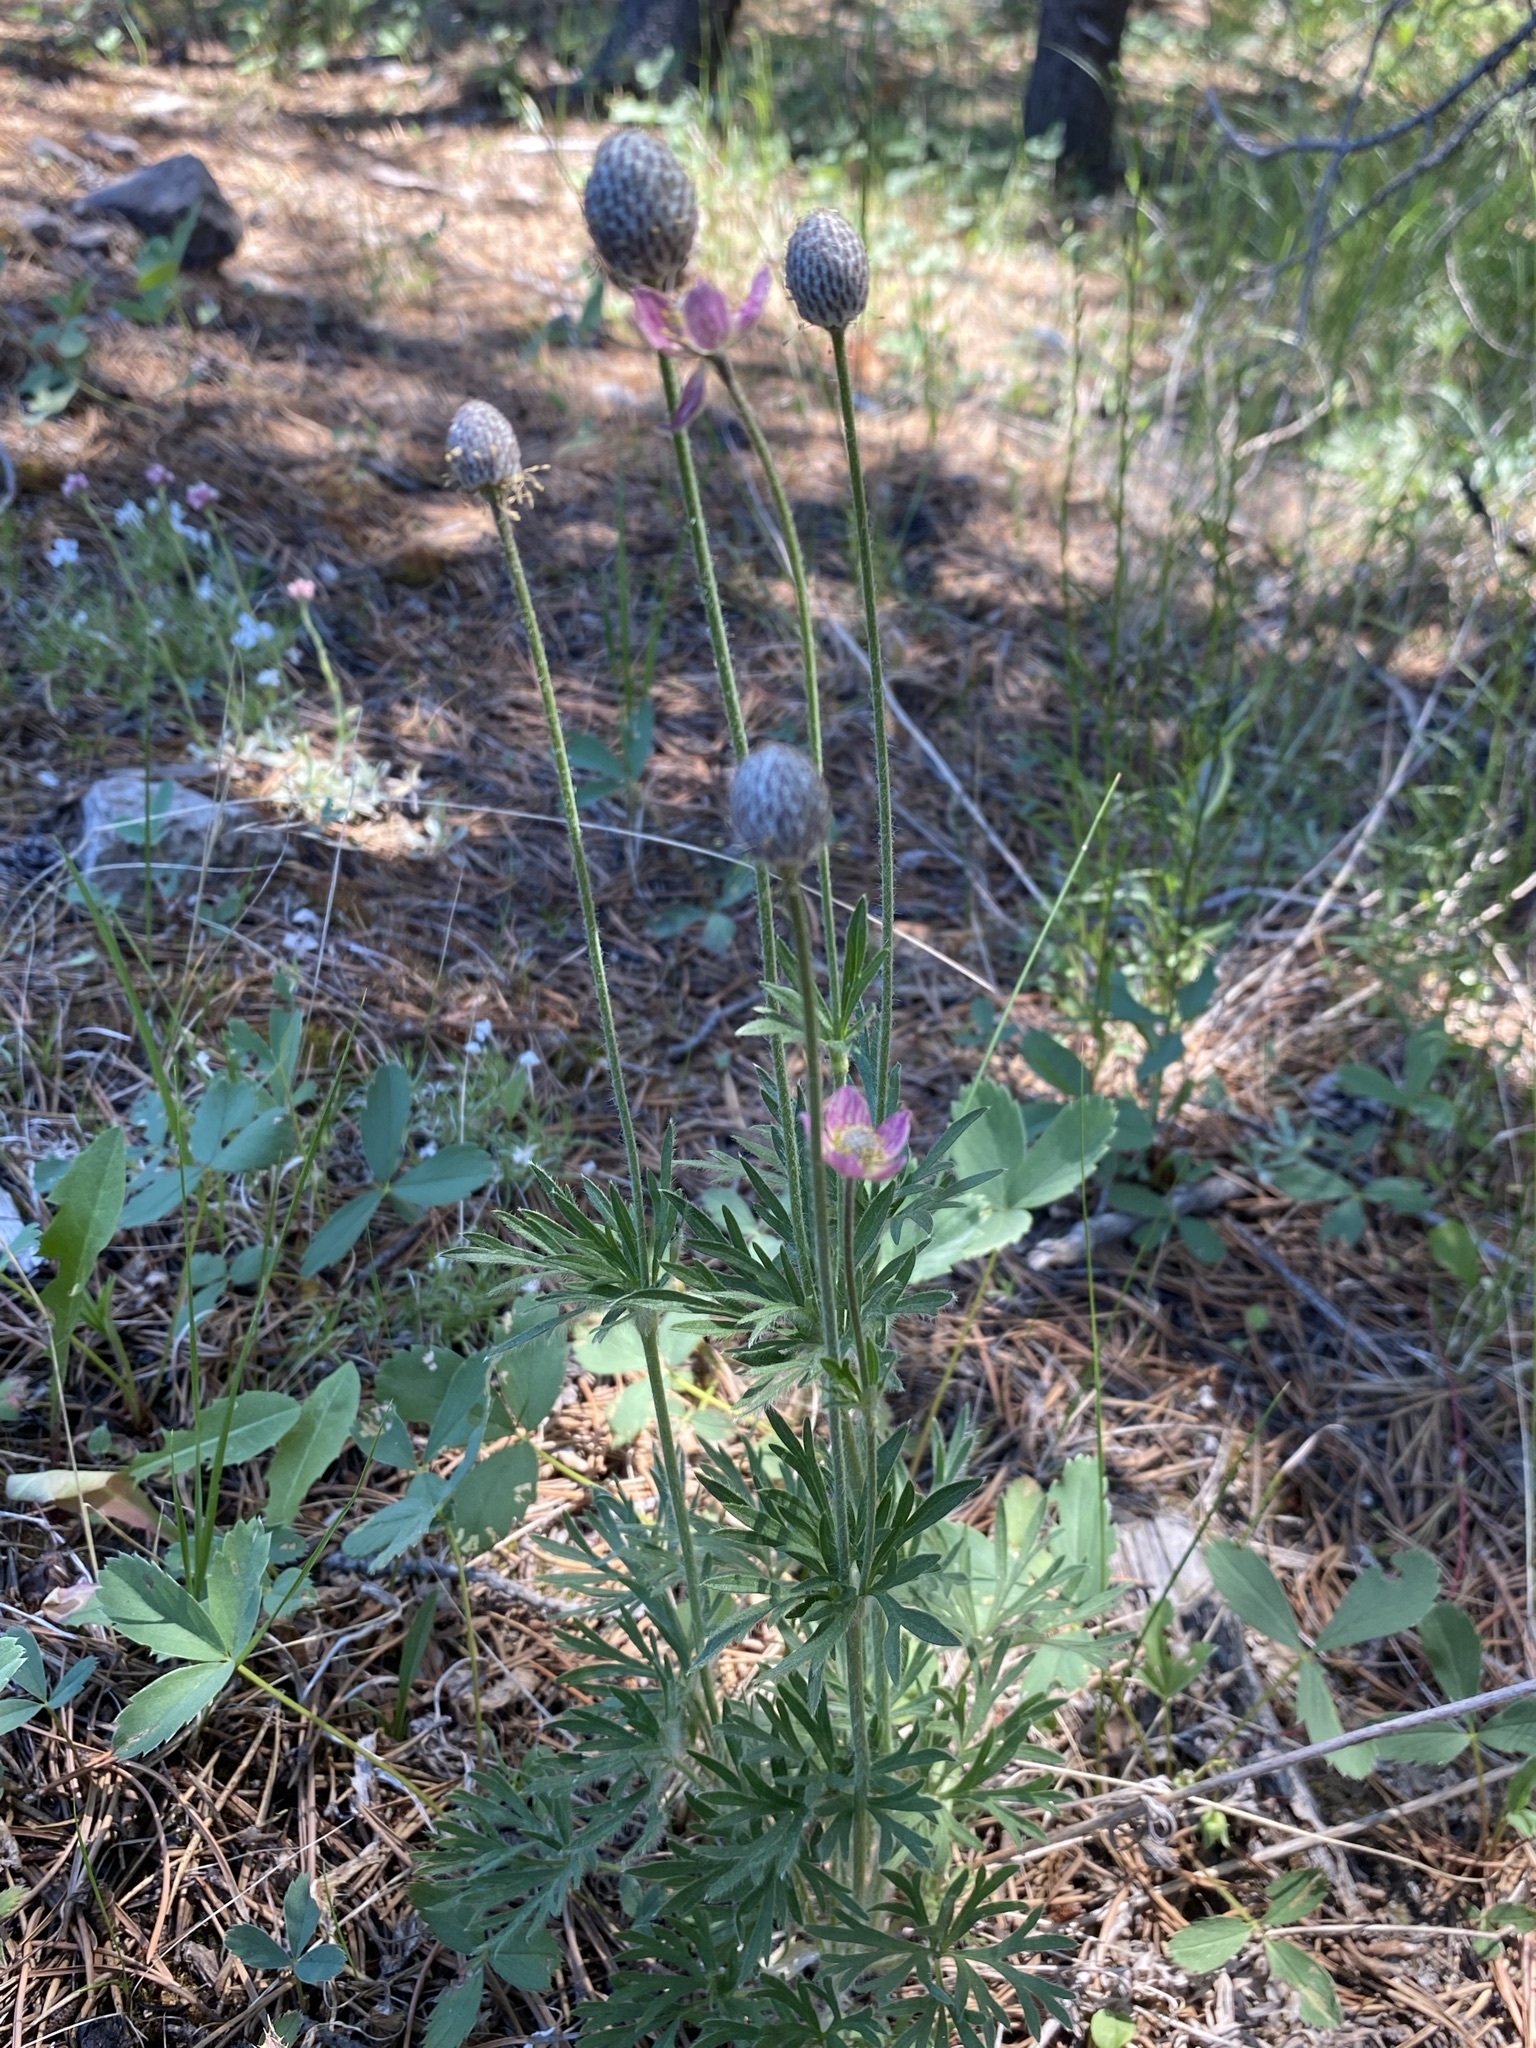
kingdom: Plantae
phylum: Tracheophyta
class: Magnoliopsida
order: Ranunculales
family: Ranunculaceae
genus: Anemone
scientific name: Anemone multifida
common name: Bird's-foot anemone
